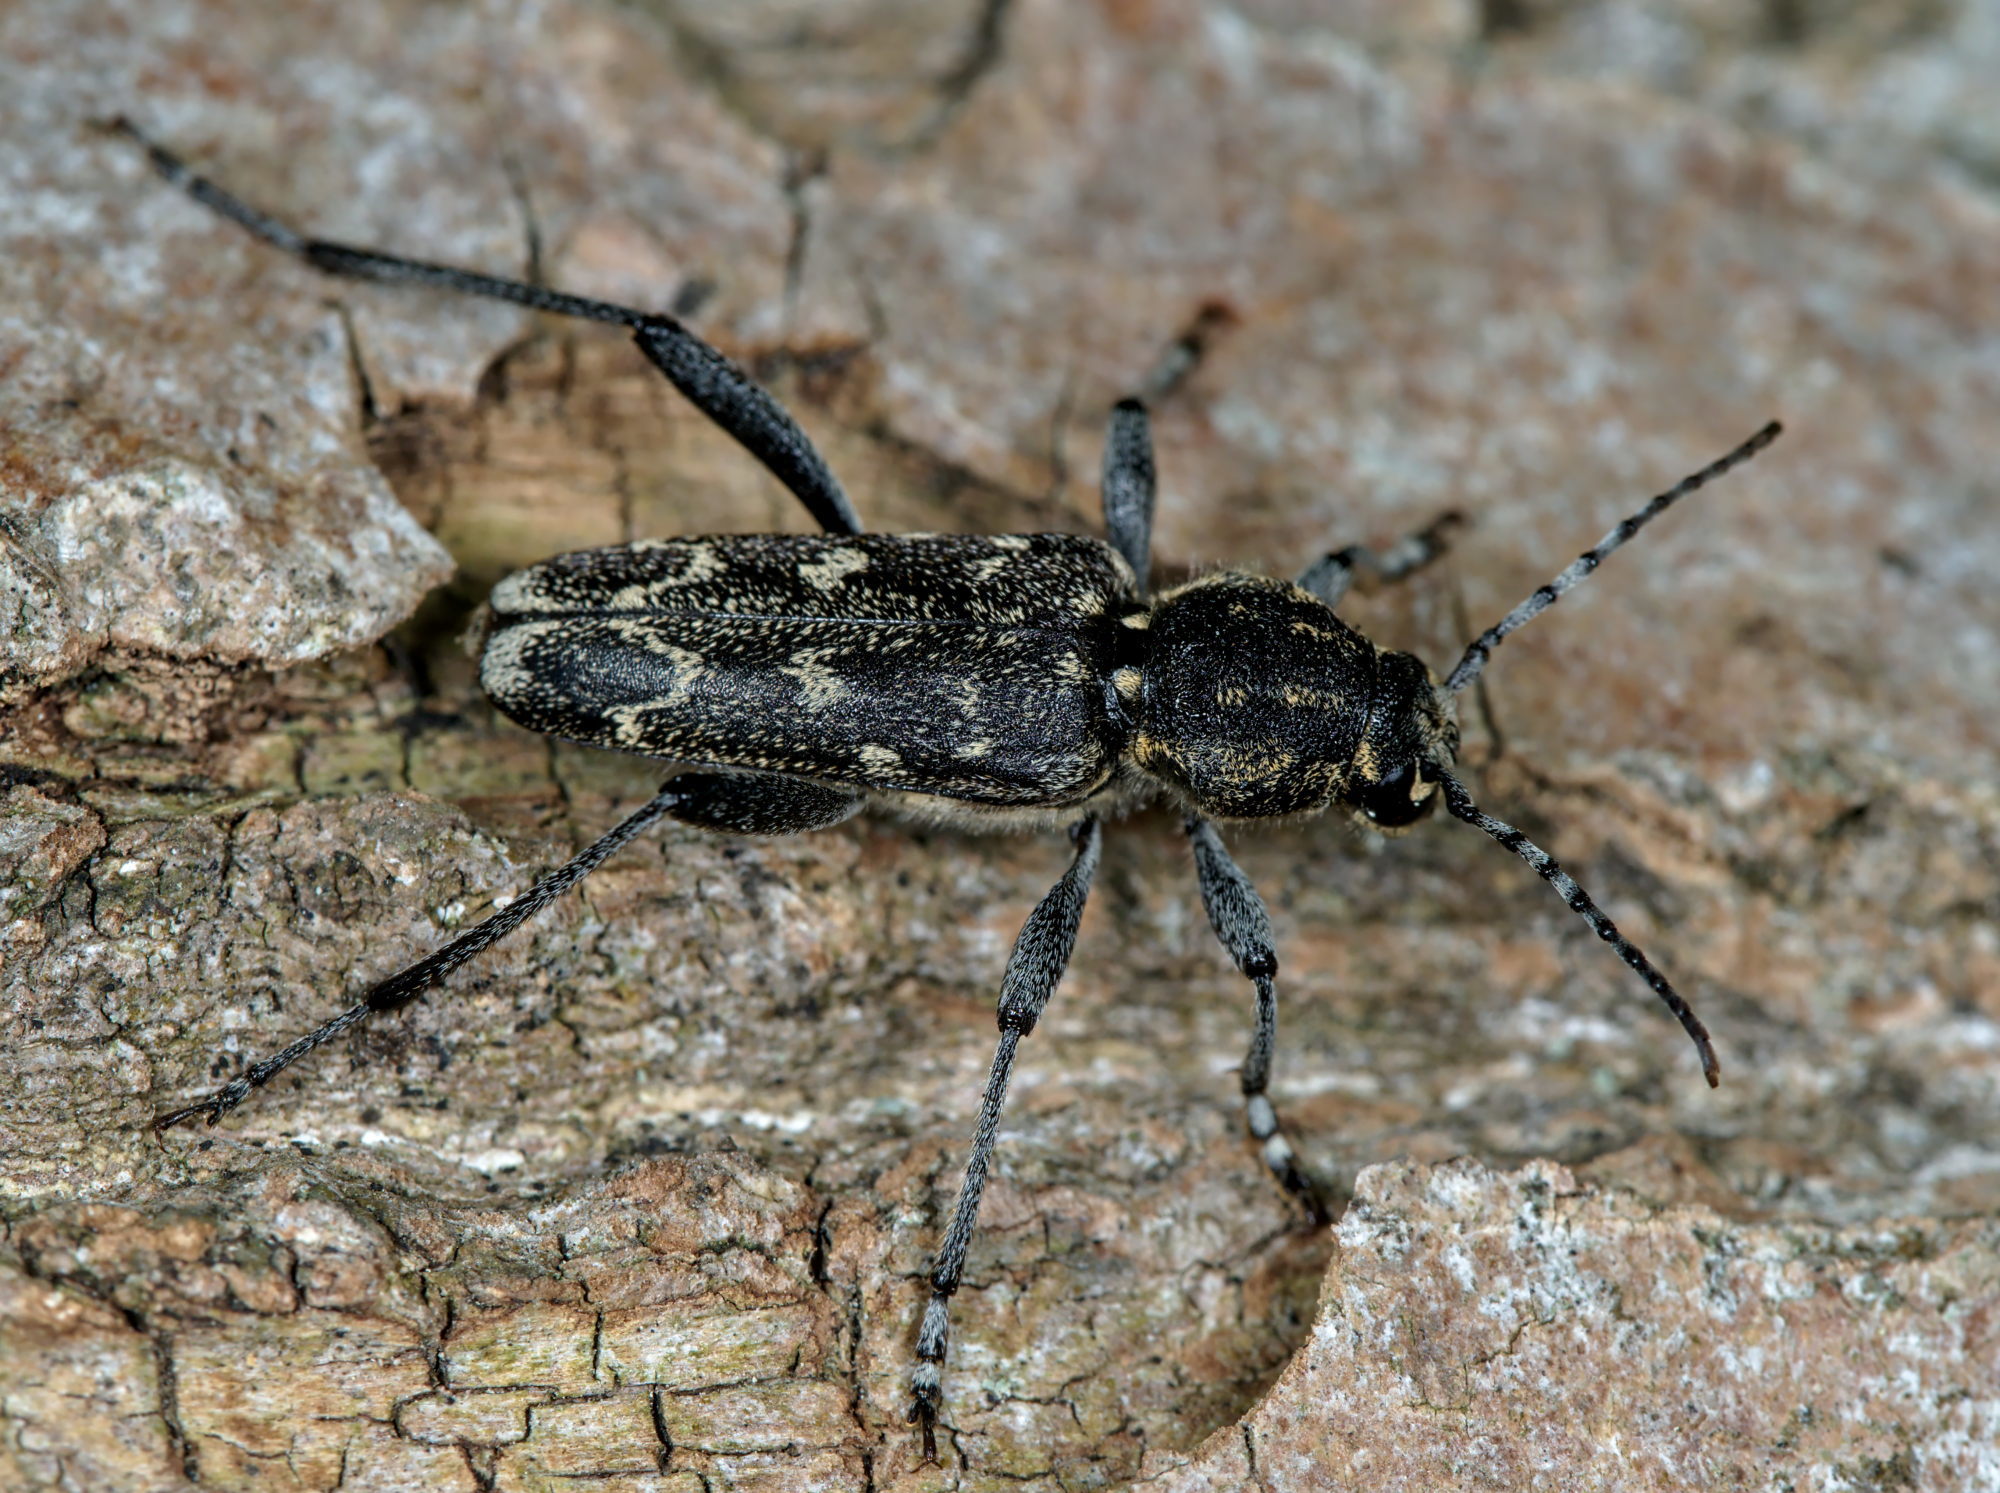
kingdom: Animalia
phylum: Arthropoda
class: Insecta
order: Coleoptera
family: Cerambycidae
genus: Xylotrechus
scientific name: Xylotrechus rusticus
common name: Grey tiger long-horned beetle
